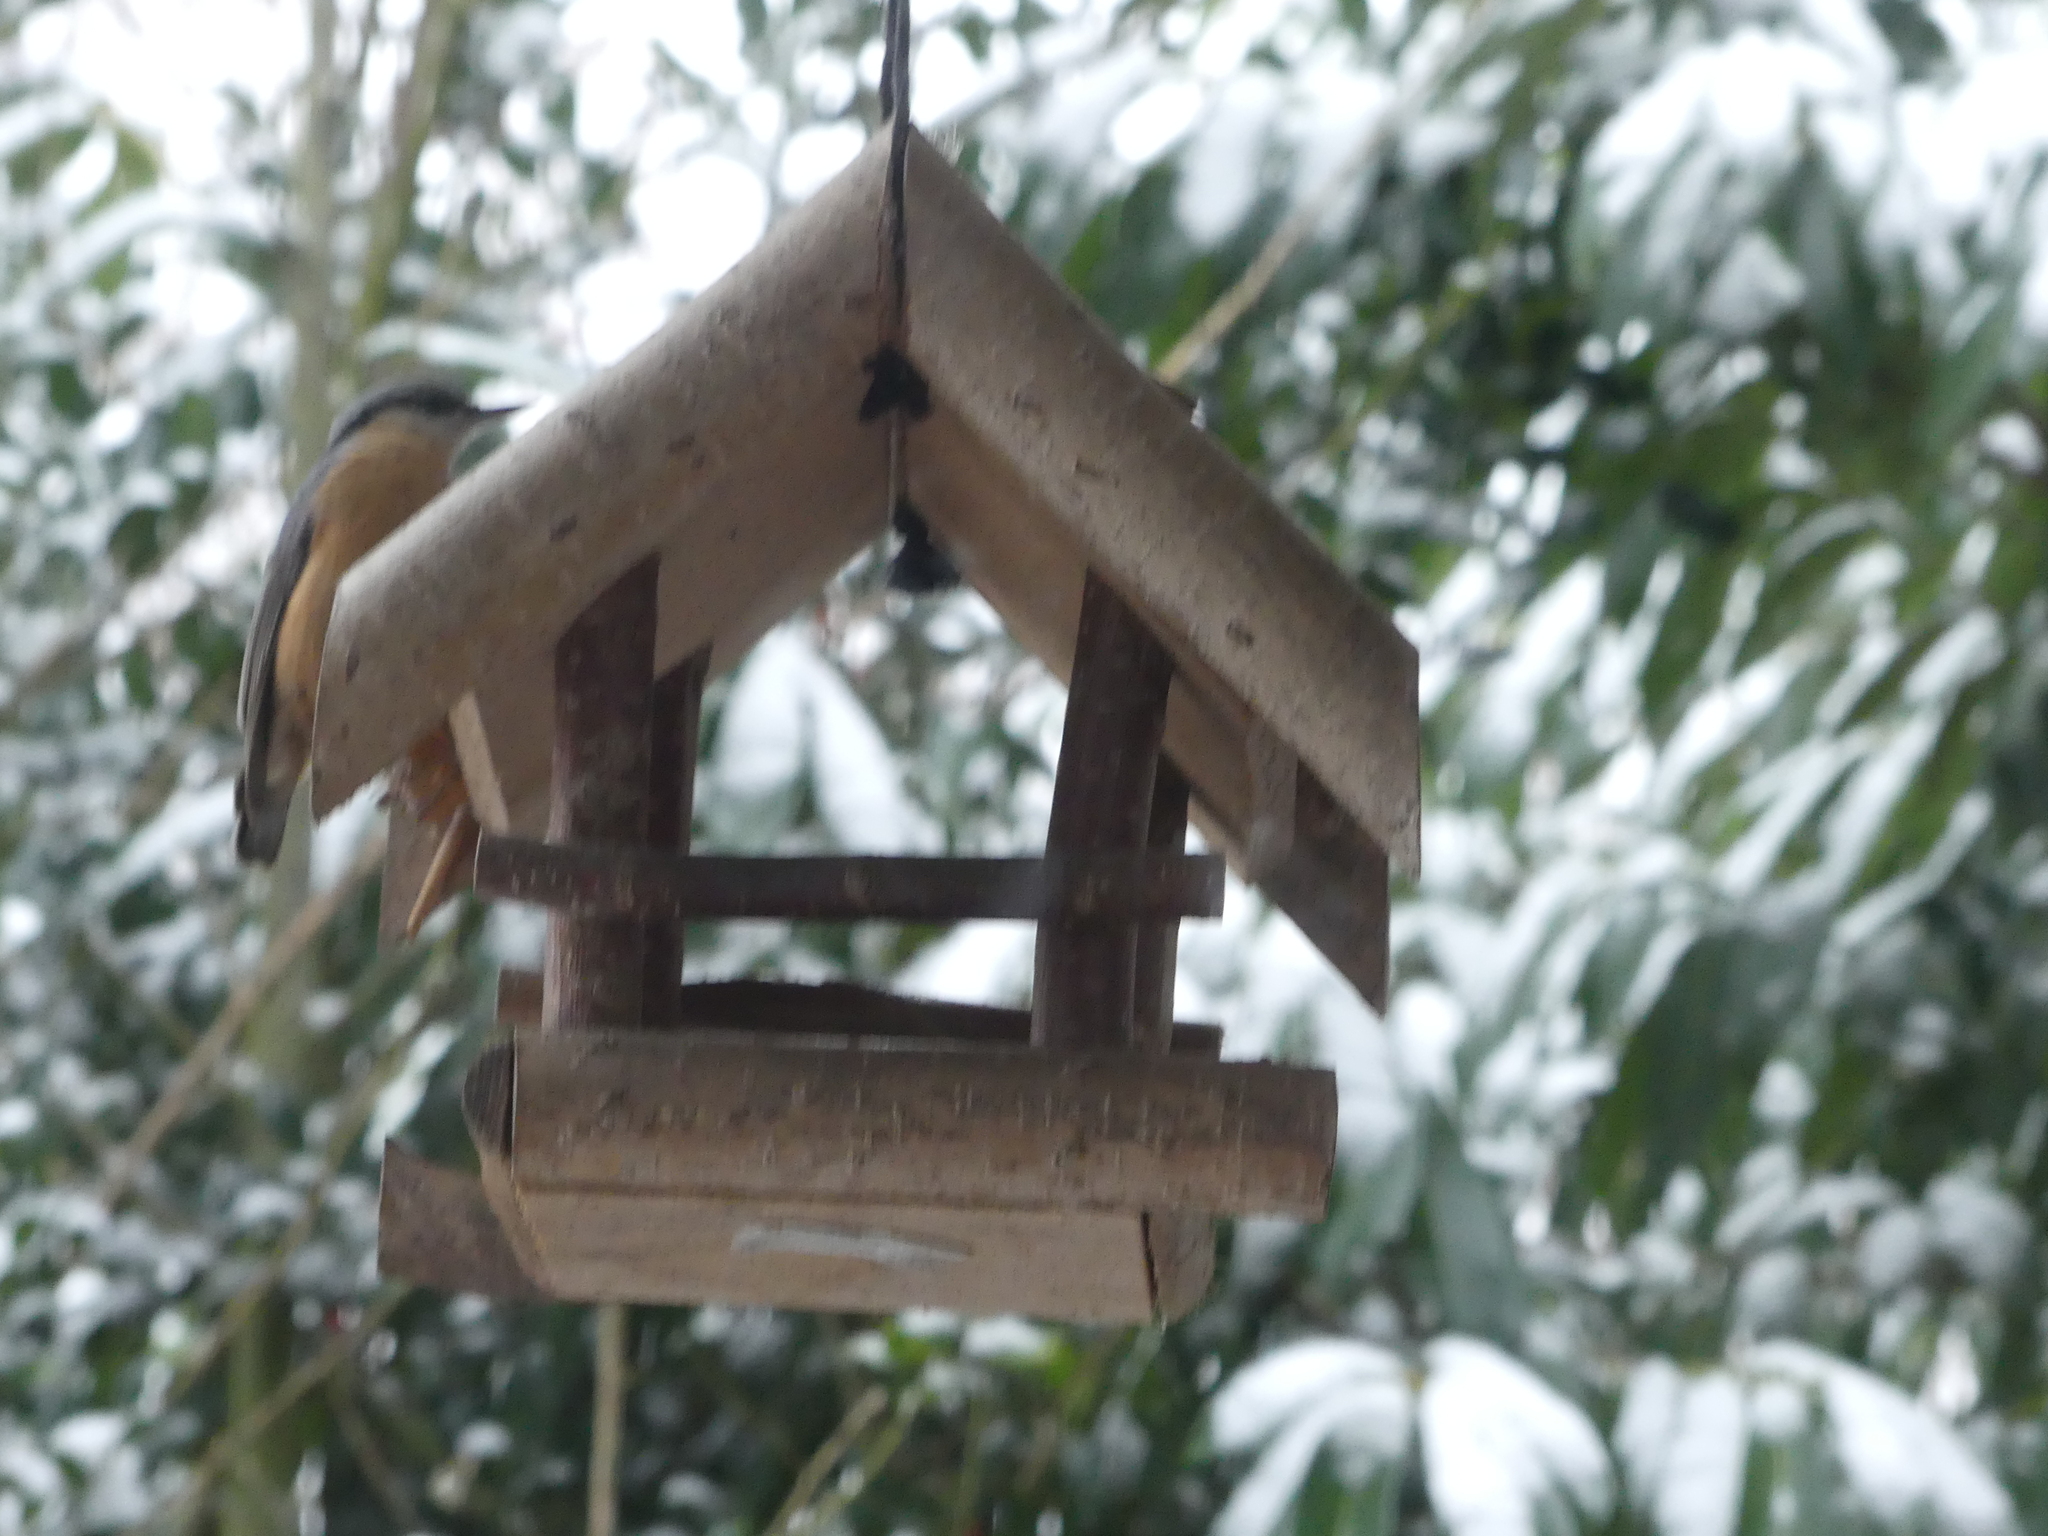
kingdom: Animalia
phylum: Chordata
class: Aves
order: Passeriformes
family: Sittidae
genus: Sitta
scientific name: Sitta europaea
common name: Eurasian nuthatch
